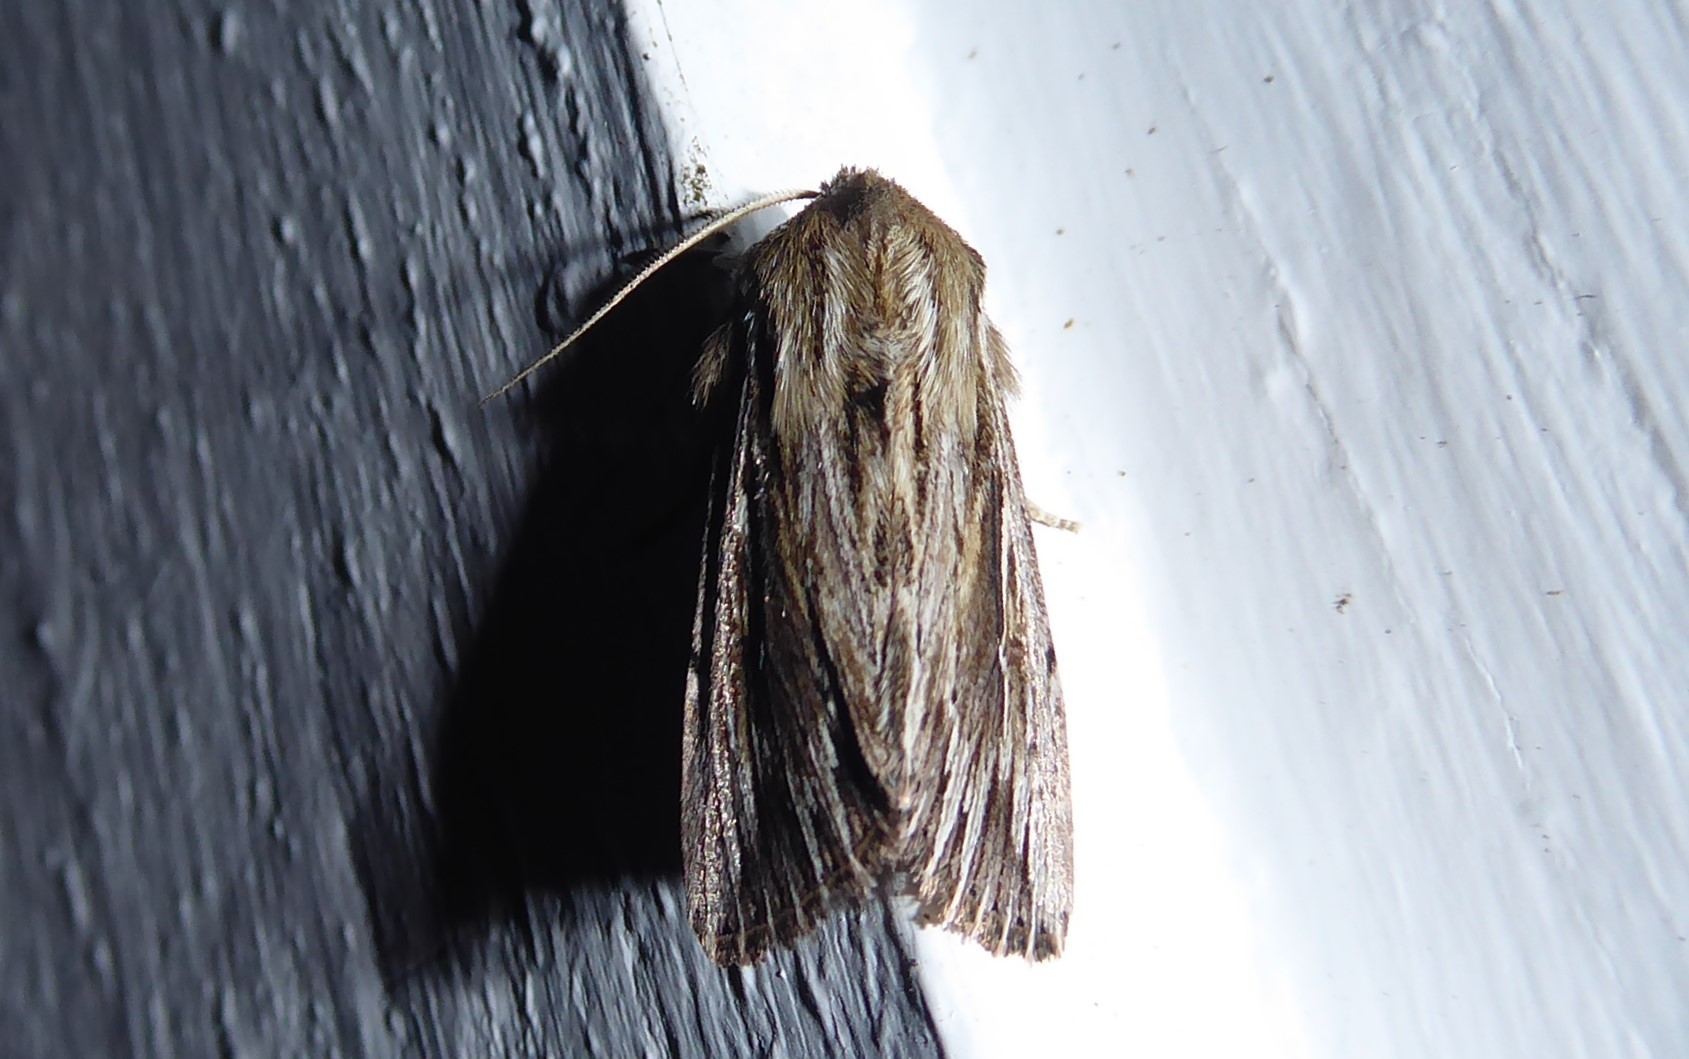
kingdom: Animalia
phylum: Arthropoda
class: Insecta
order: Lepidoptera
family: Noctuidae
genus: Persectania
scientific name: Persectania aversa
